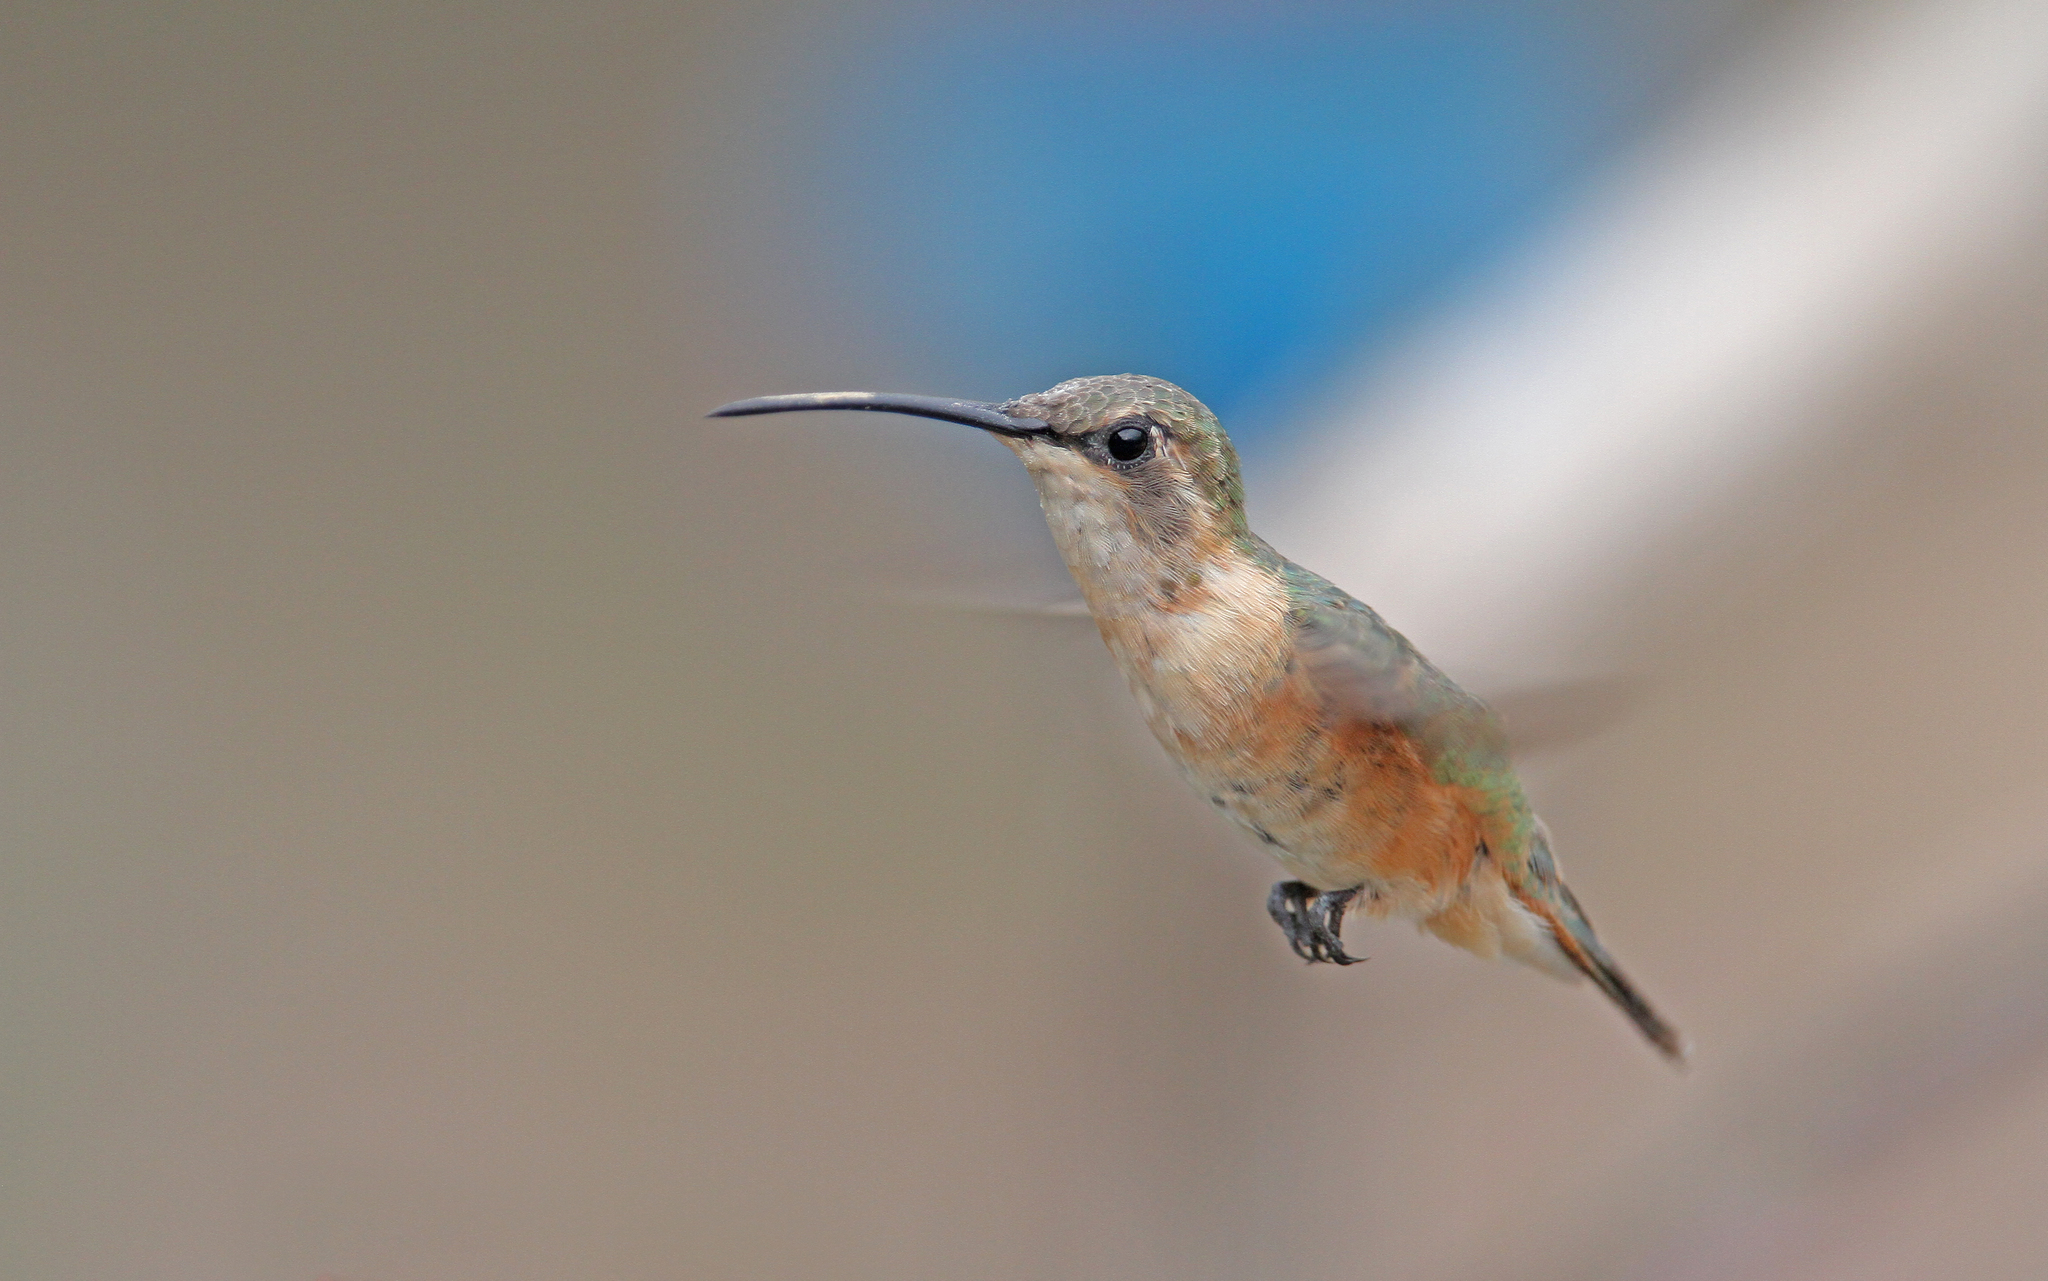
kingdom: Animalia
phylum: Chordata
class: Aves
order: Apodiformes
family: Trochilidae
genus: Calothorax
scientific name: Calothorax lucifer
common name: Lucifer sheartail
